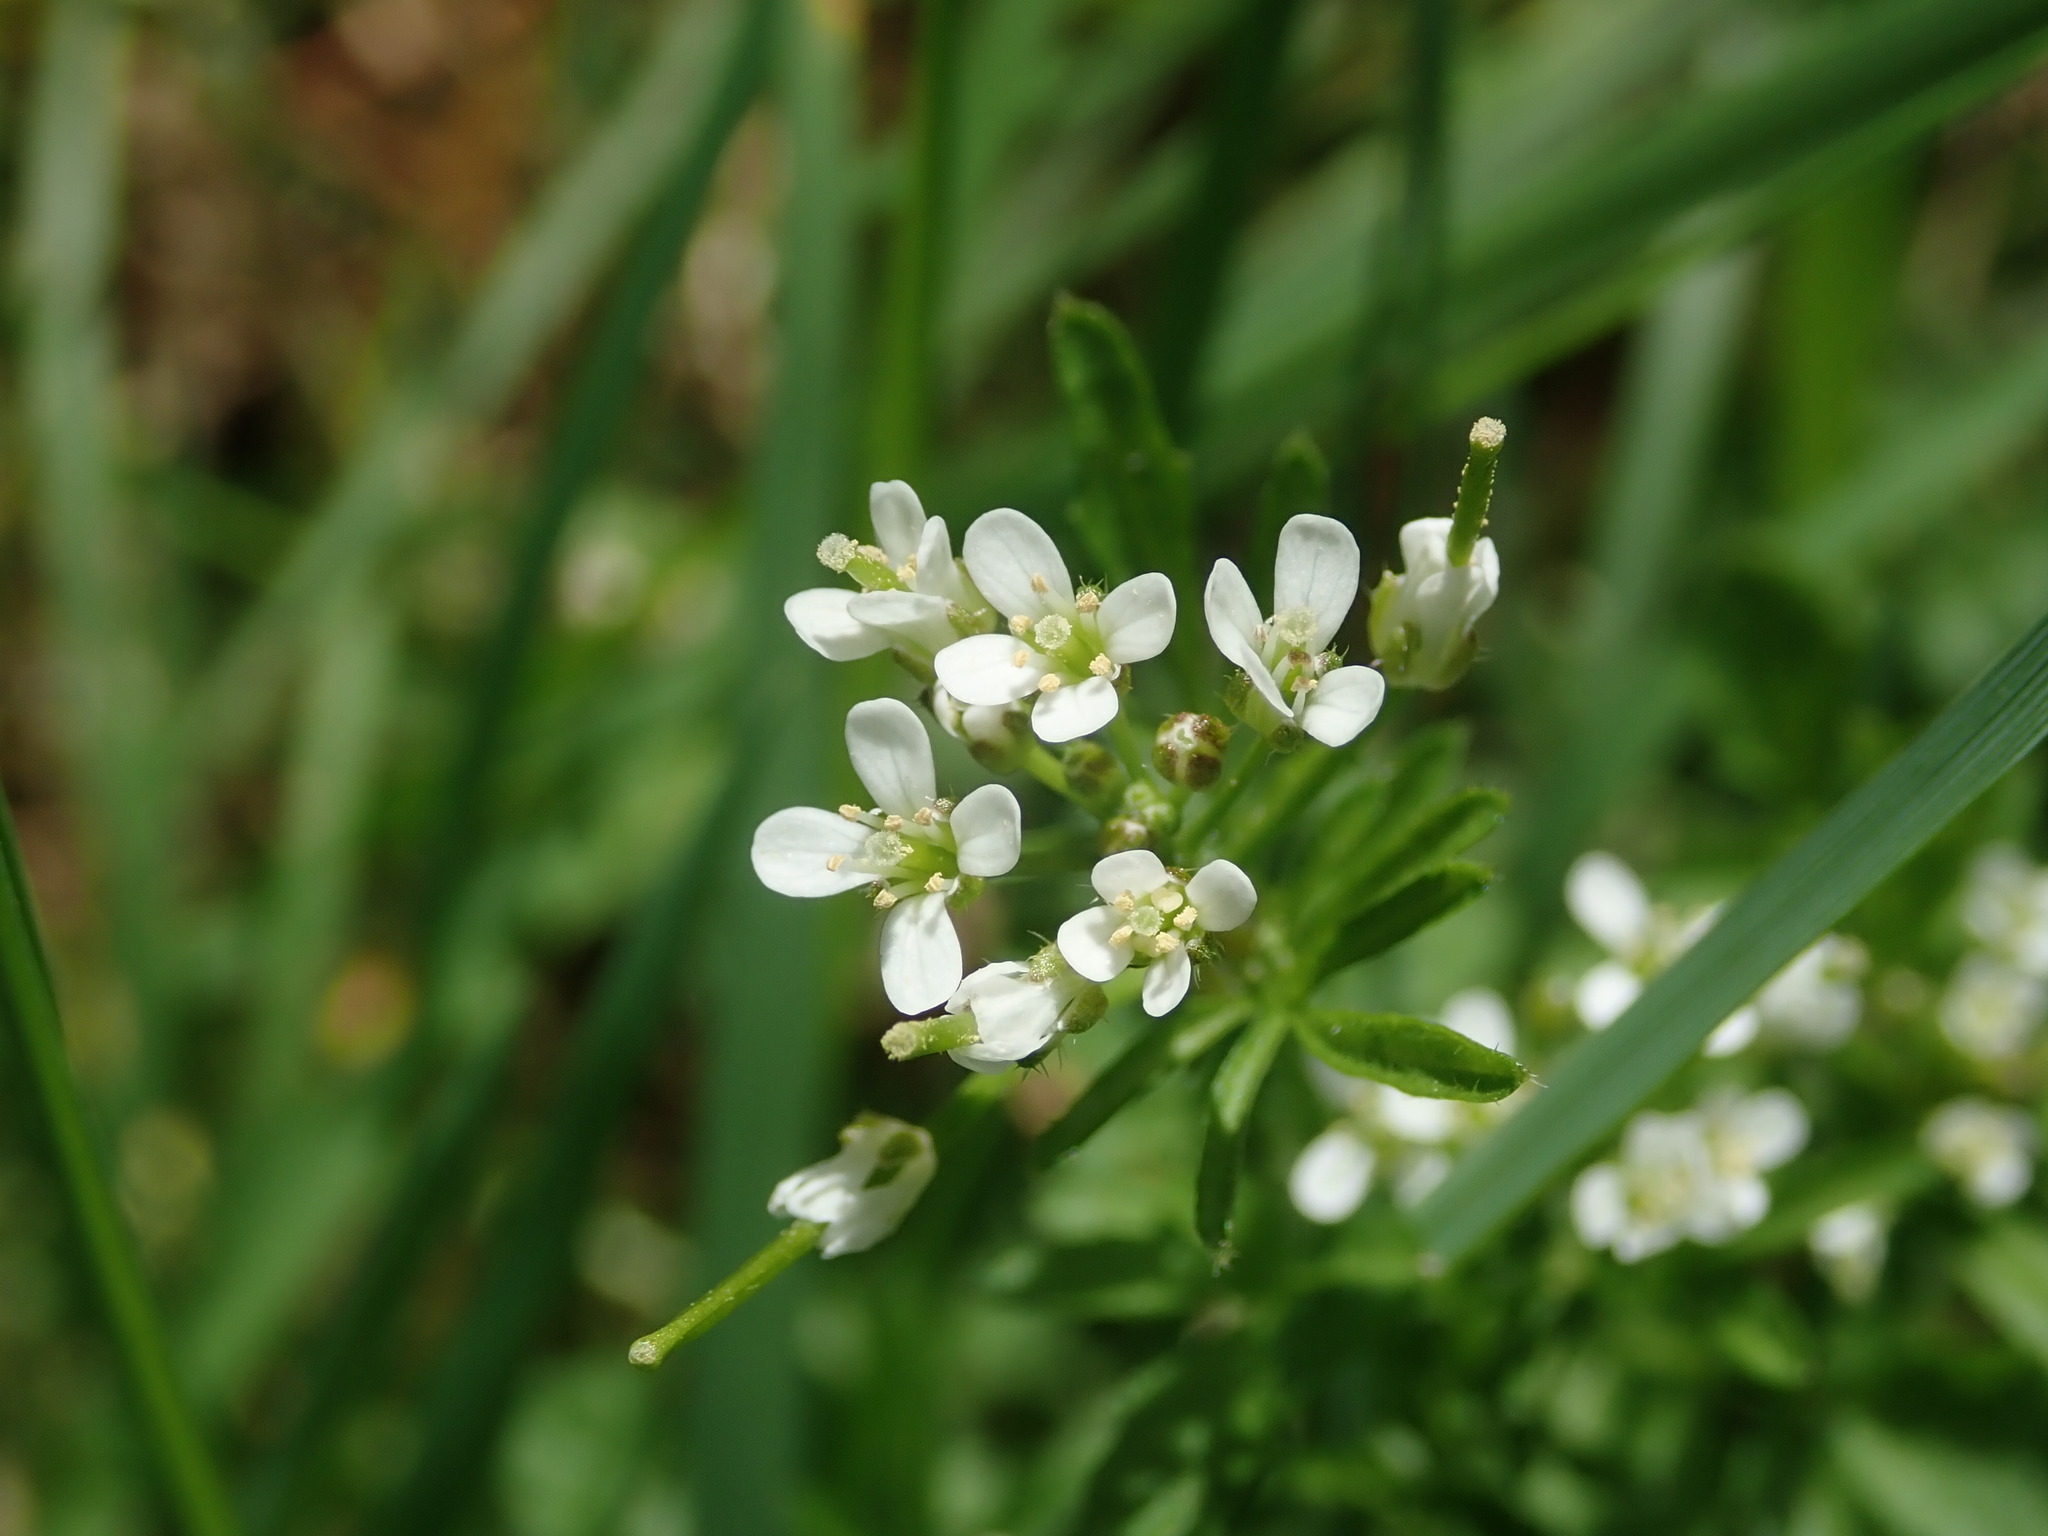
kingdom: Plantae
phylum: Tracheophyta
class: Magnoliopsida
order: Brassicales
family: Brassicaceae
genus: Cardamine
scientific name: Cardamine flexuosa
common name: Woodland bittercress
